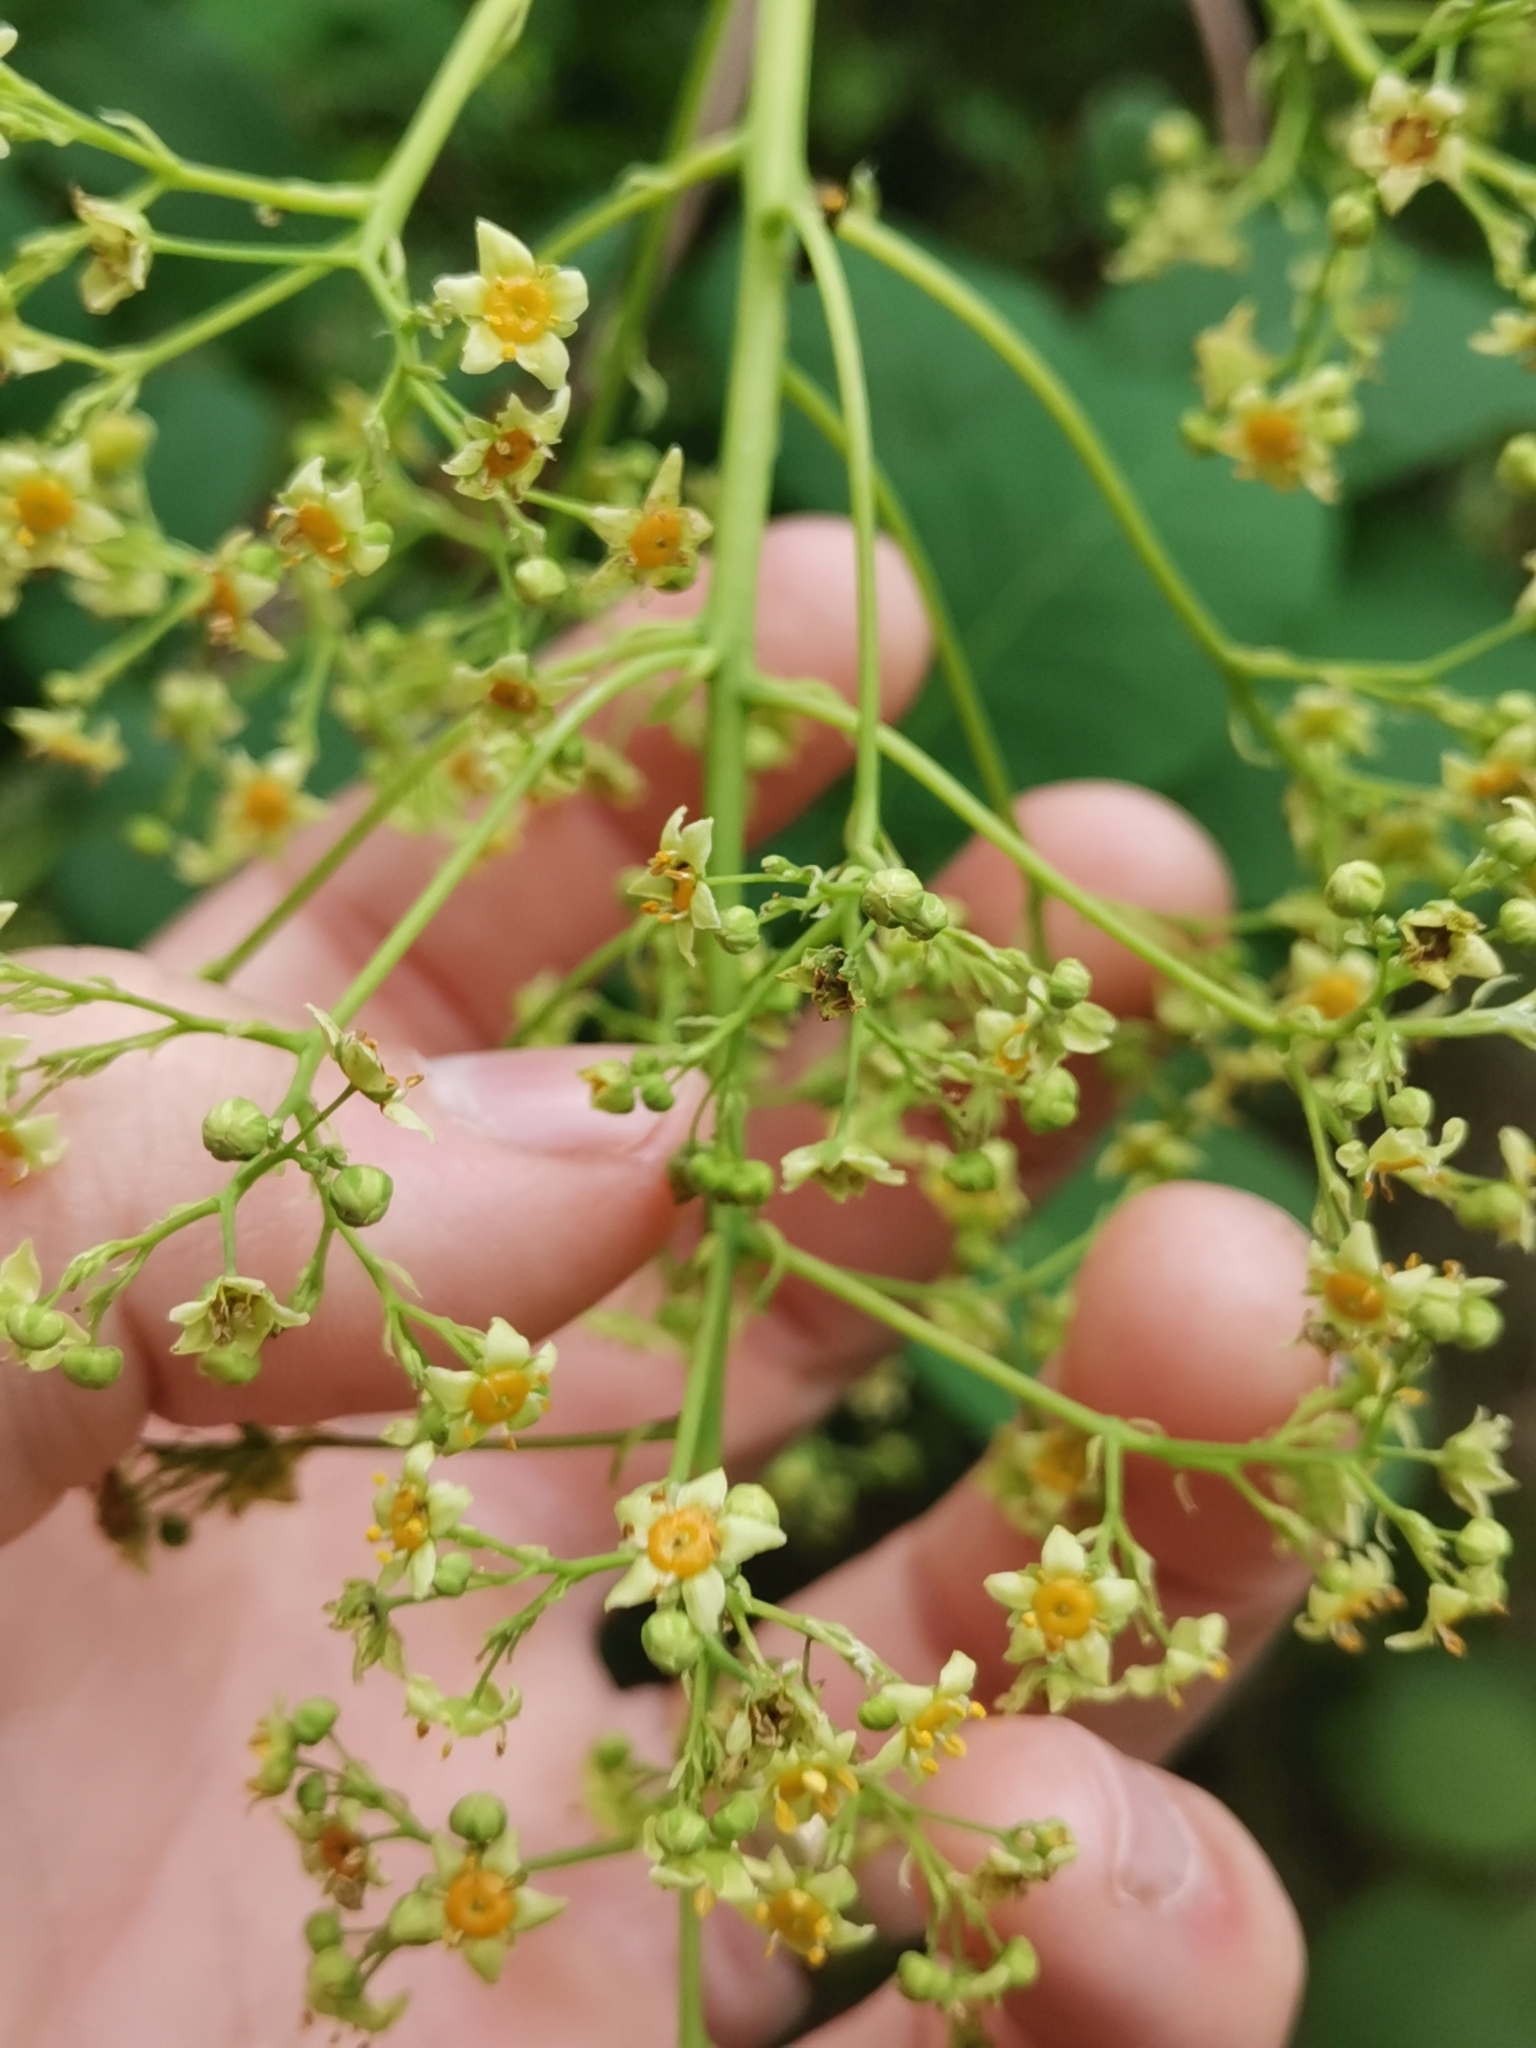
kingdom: Plantae
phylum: Tracheophyta
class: Magnoliopsida
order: Sapindales
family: Anacardiaceae
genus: Cotinus
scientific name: Cotinus coggygria
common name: Smoke-tree
